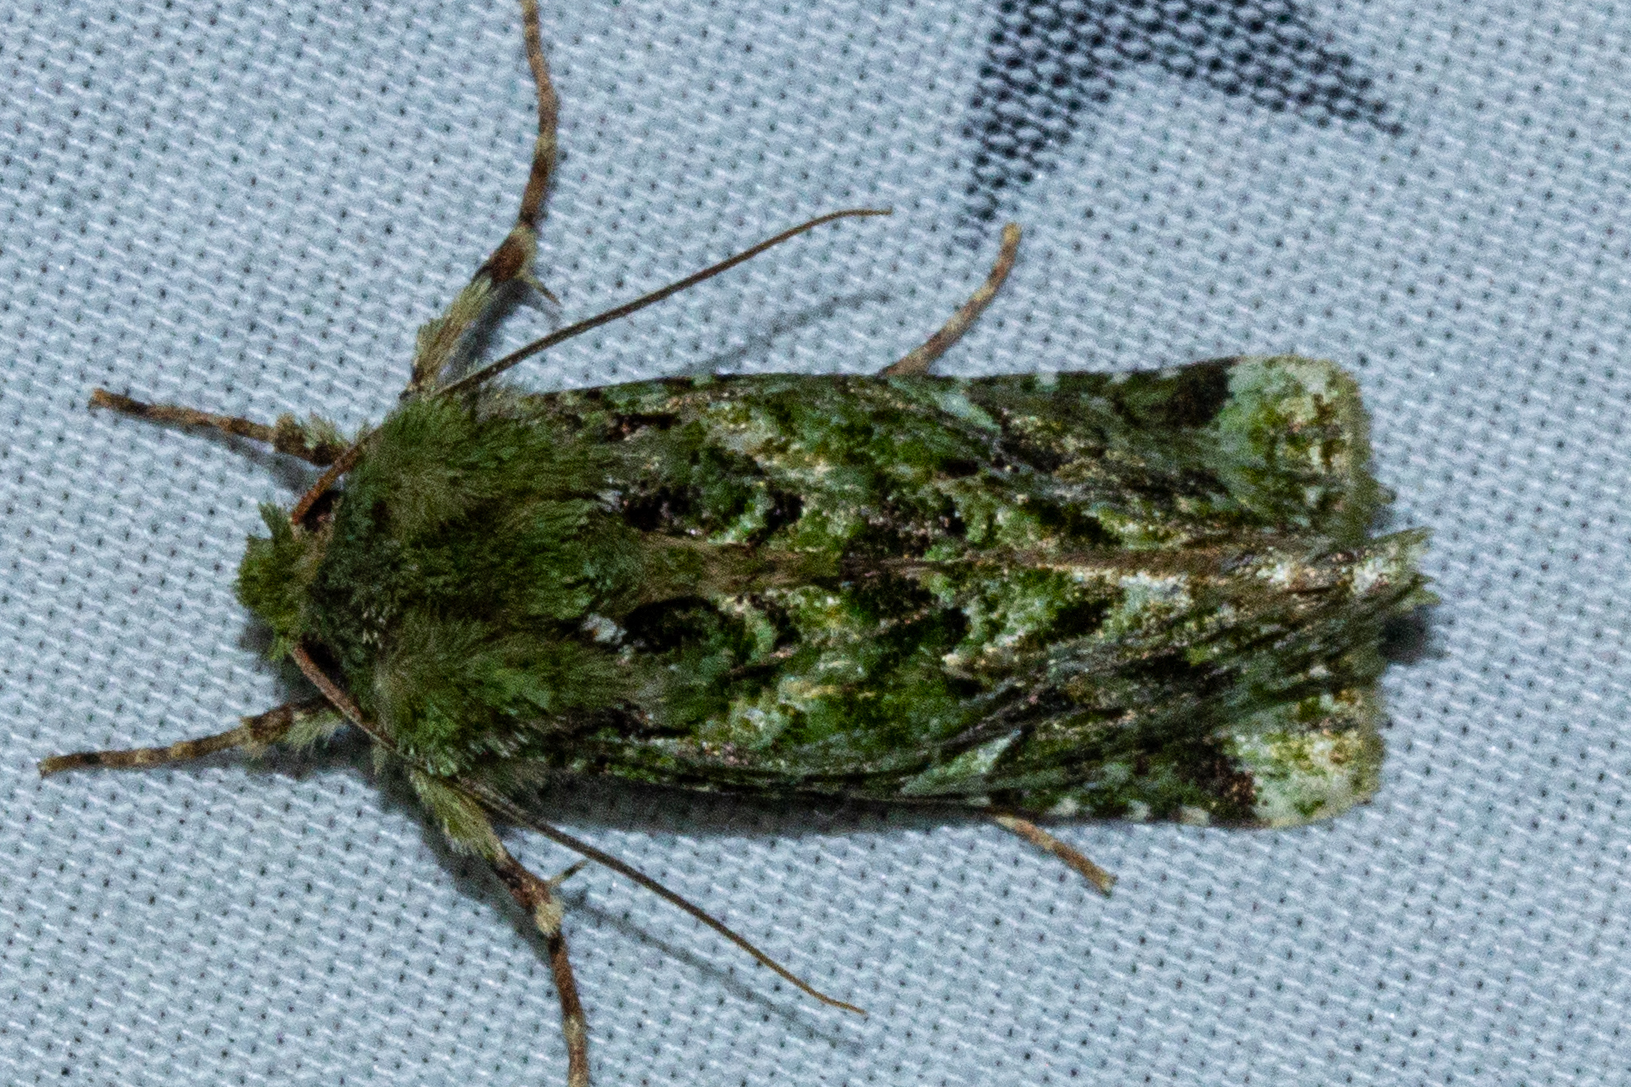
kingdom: Animalia
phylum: Arthropoda
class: Insecta
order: Lepidoptera
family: Noctuidae
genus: Feredayia
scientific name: Feredayia grammosa
